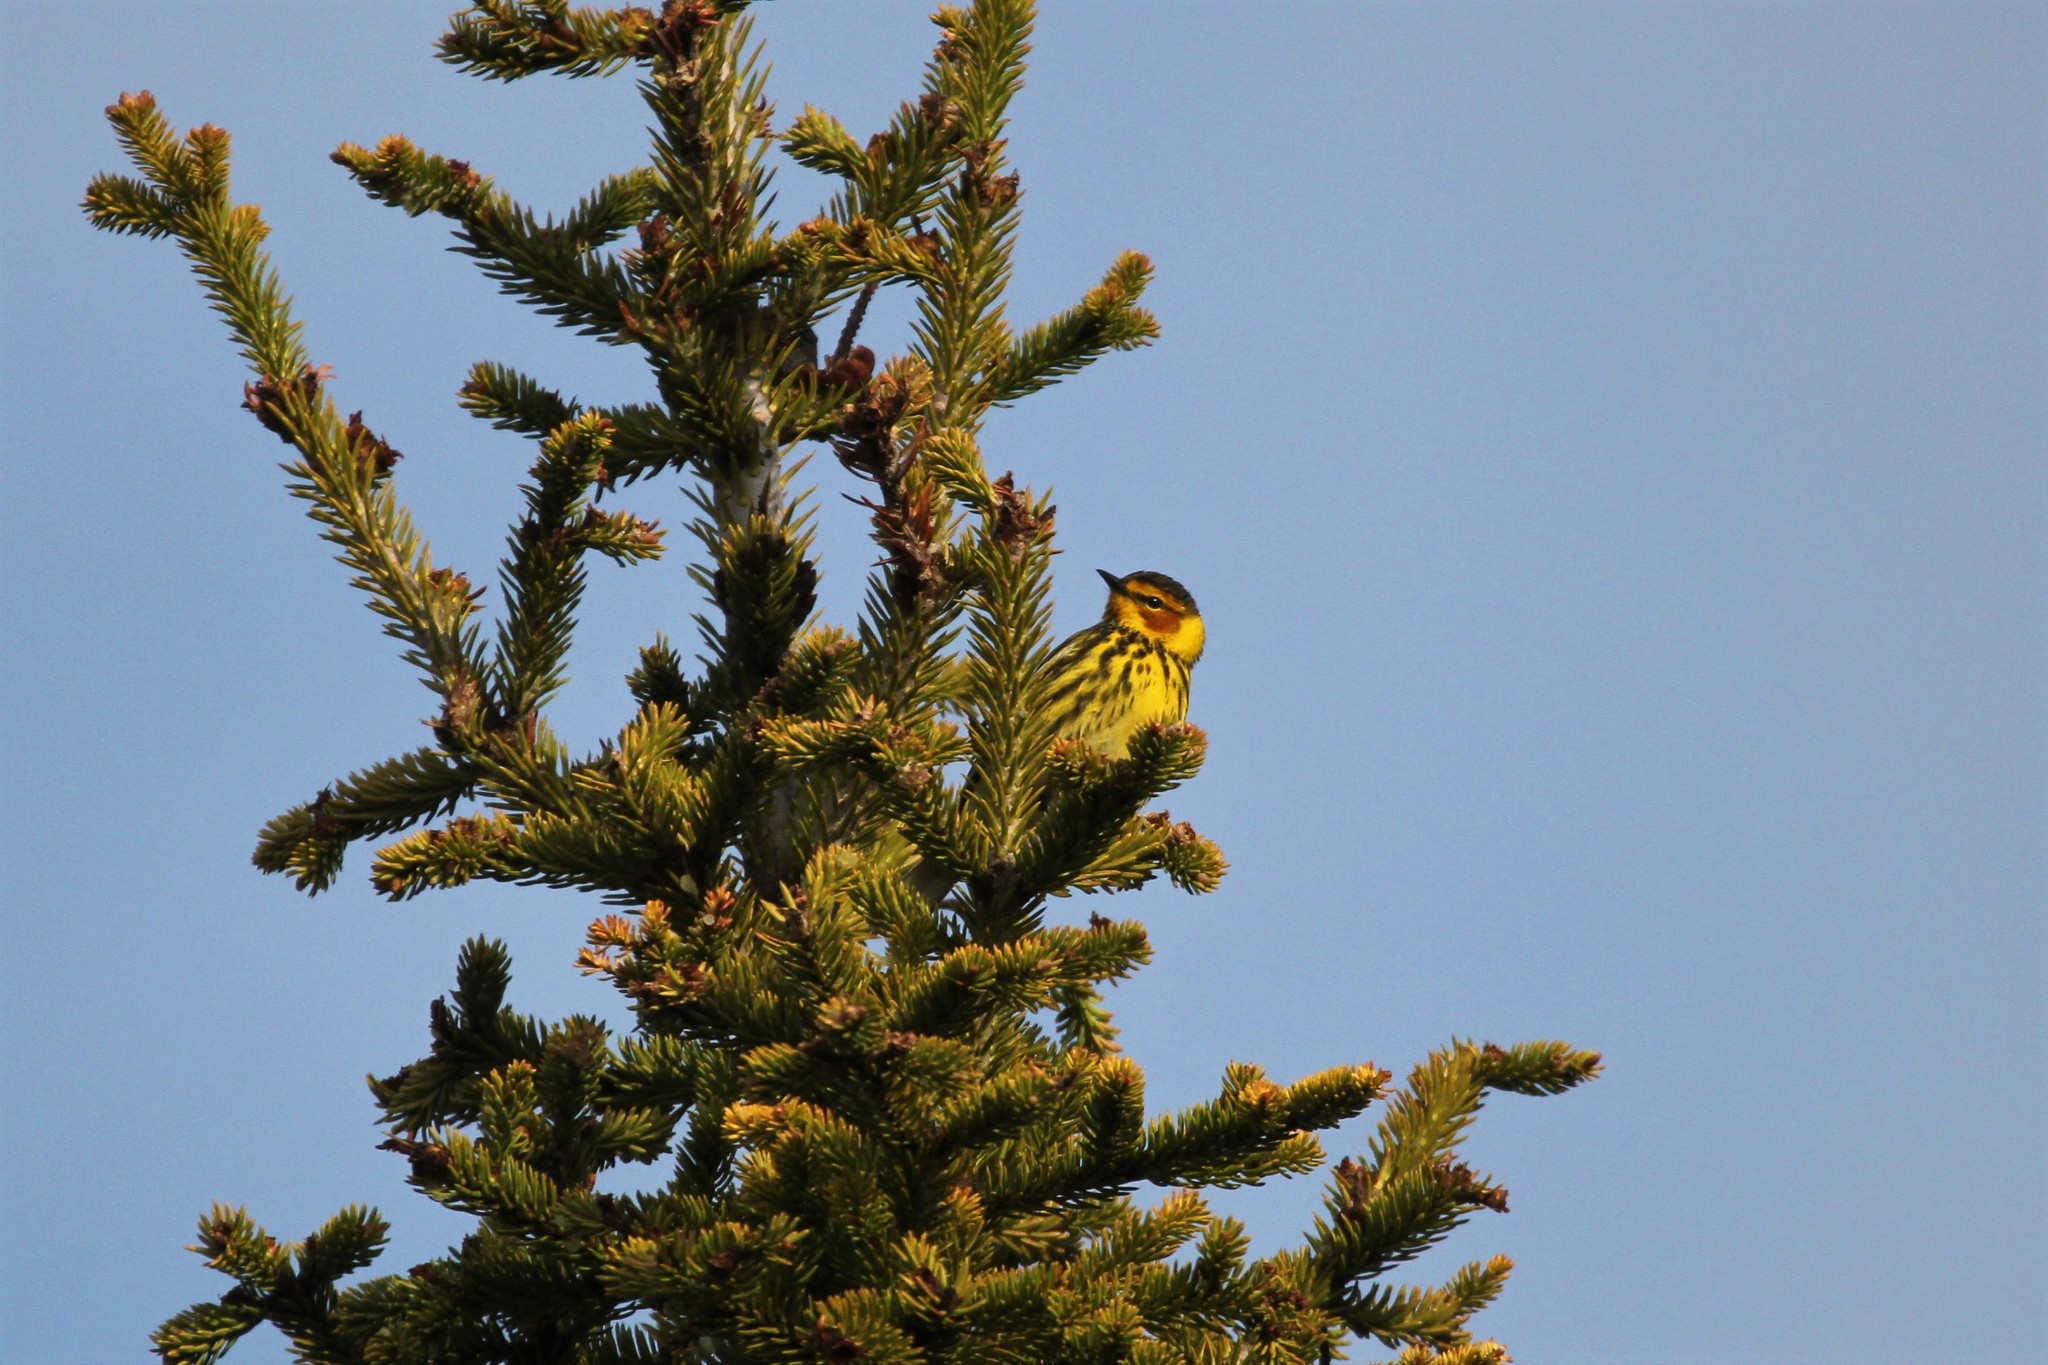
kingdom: Animalia
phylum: Chordata
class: Aves
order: Passeriformes
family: Parulidae
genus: Setophaga
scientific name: Setophaga tigrina
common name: Cape may warbler
